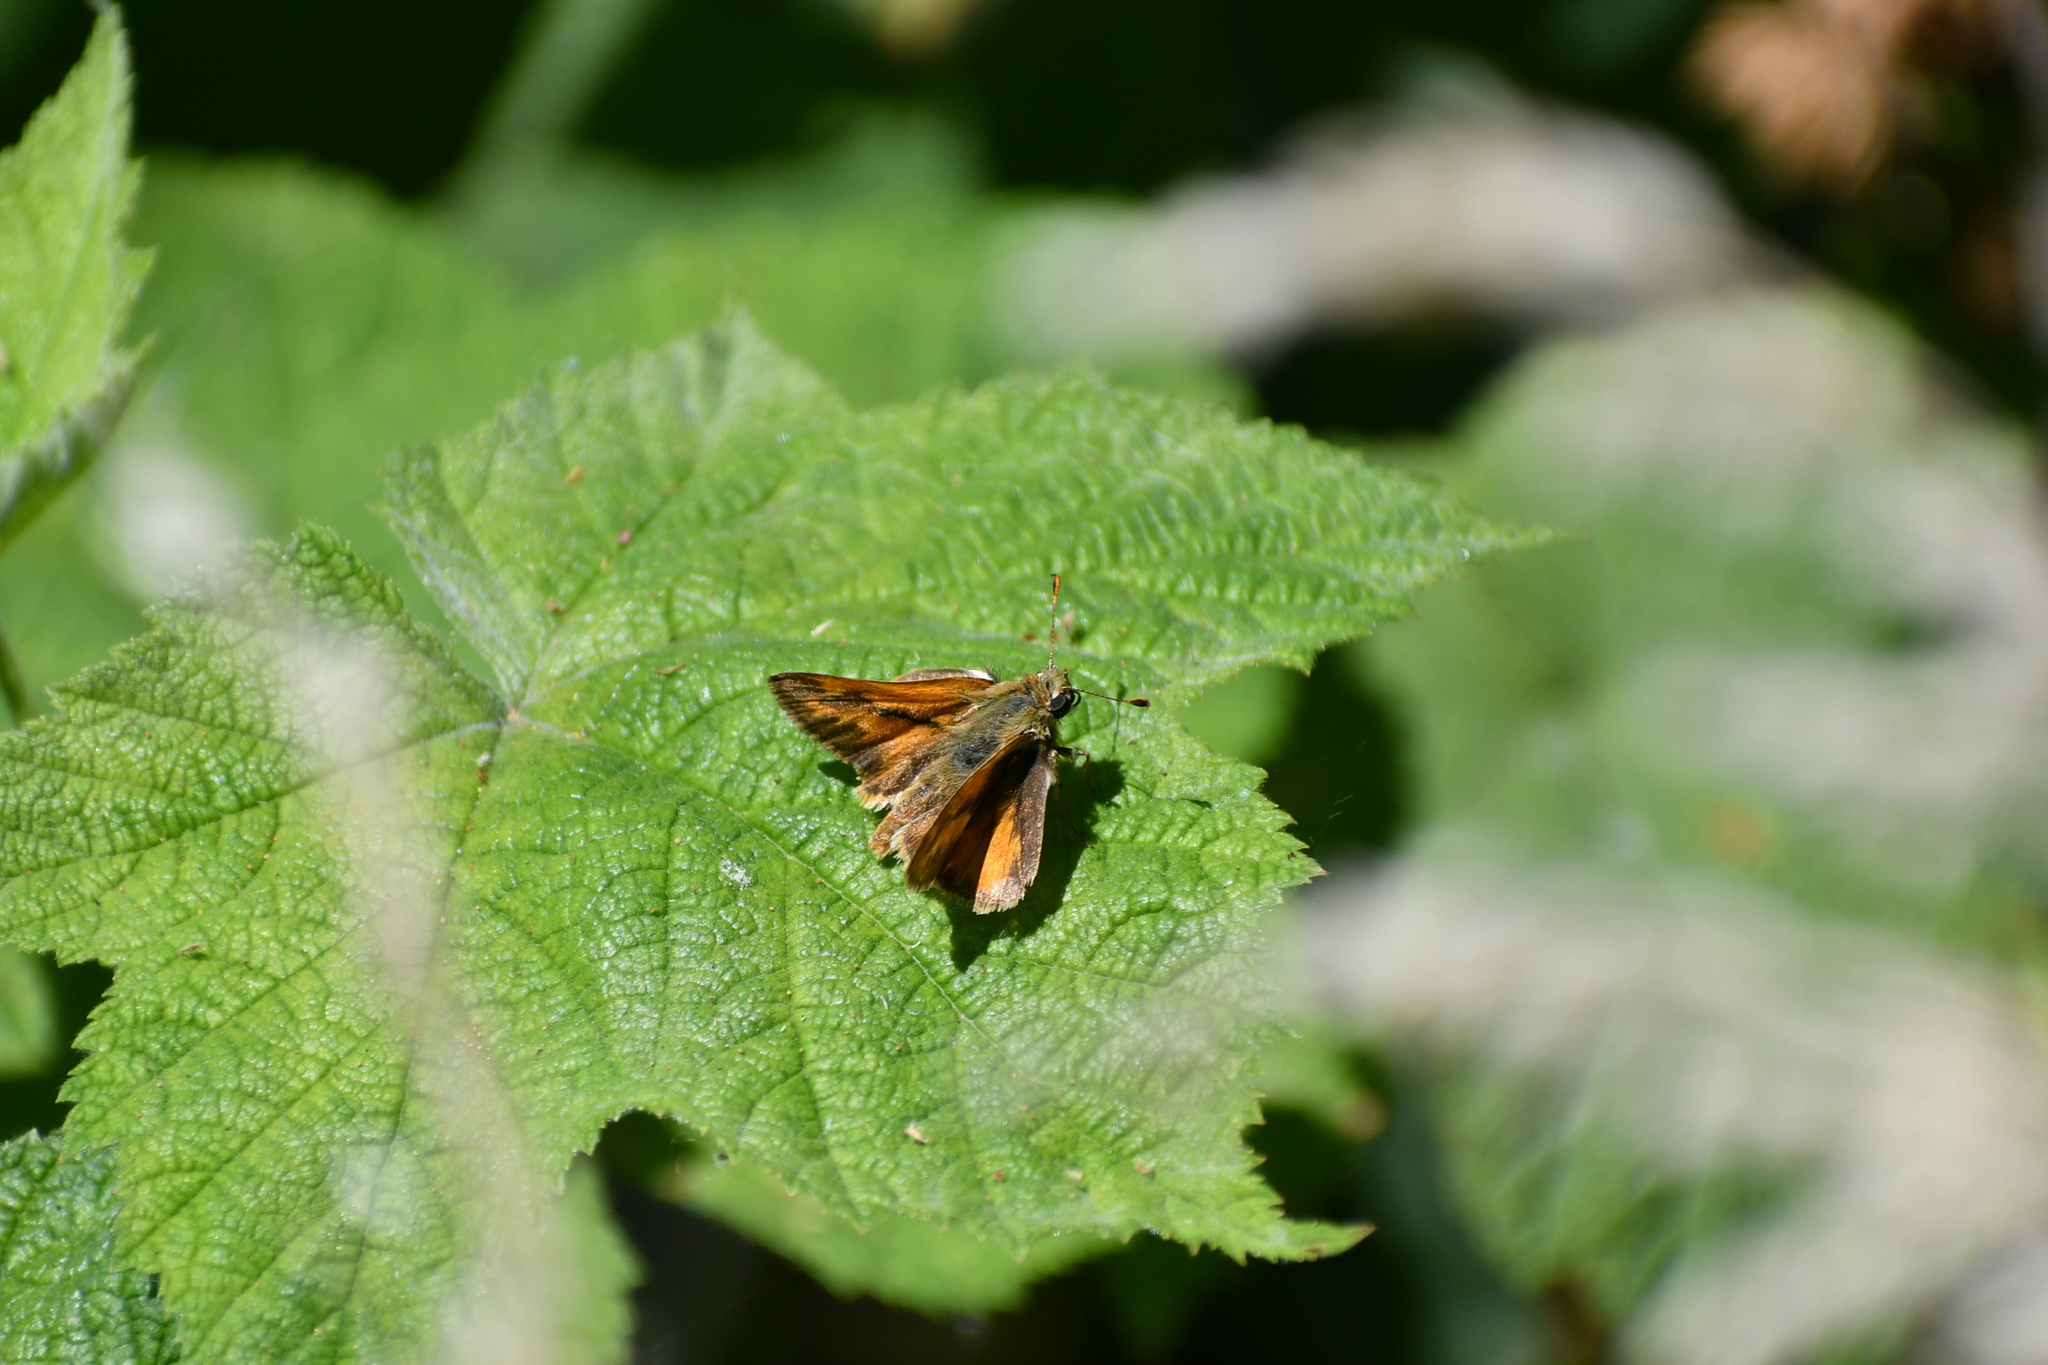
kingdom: Animalia
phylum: Arthropoda
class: Insecta
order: Lepidoptera
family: Hesperiidae
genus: Ochlodes
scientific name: Ochlodes sylvanoides
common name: Woodland skipper
